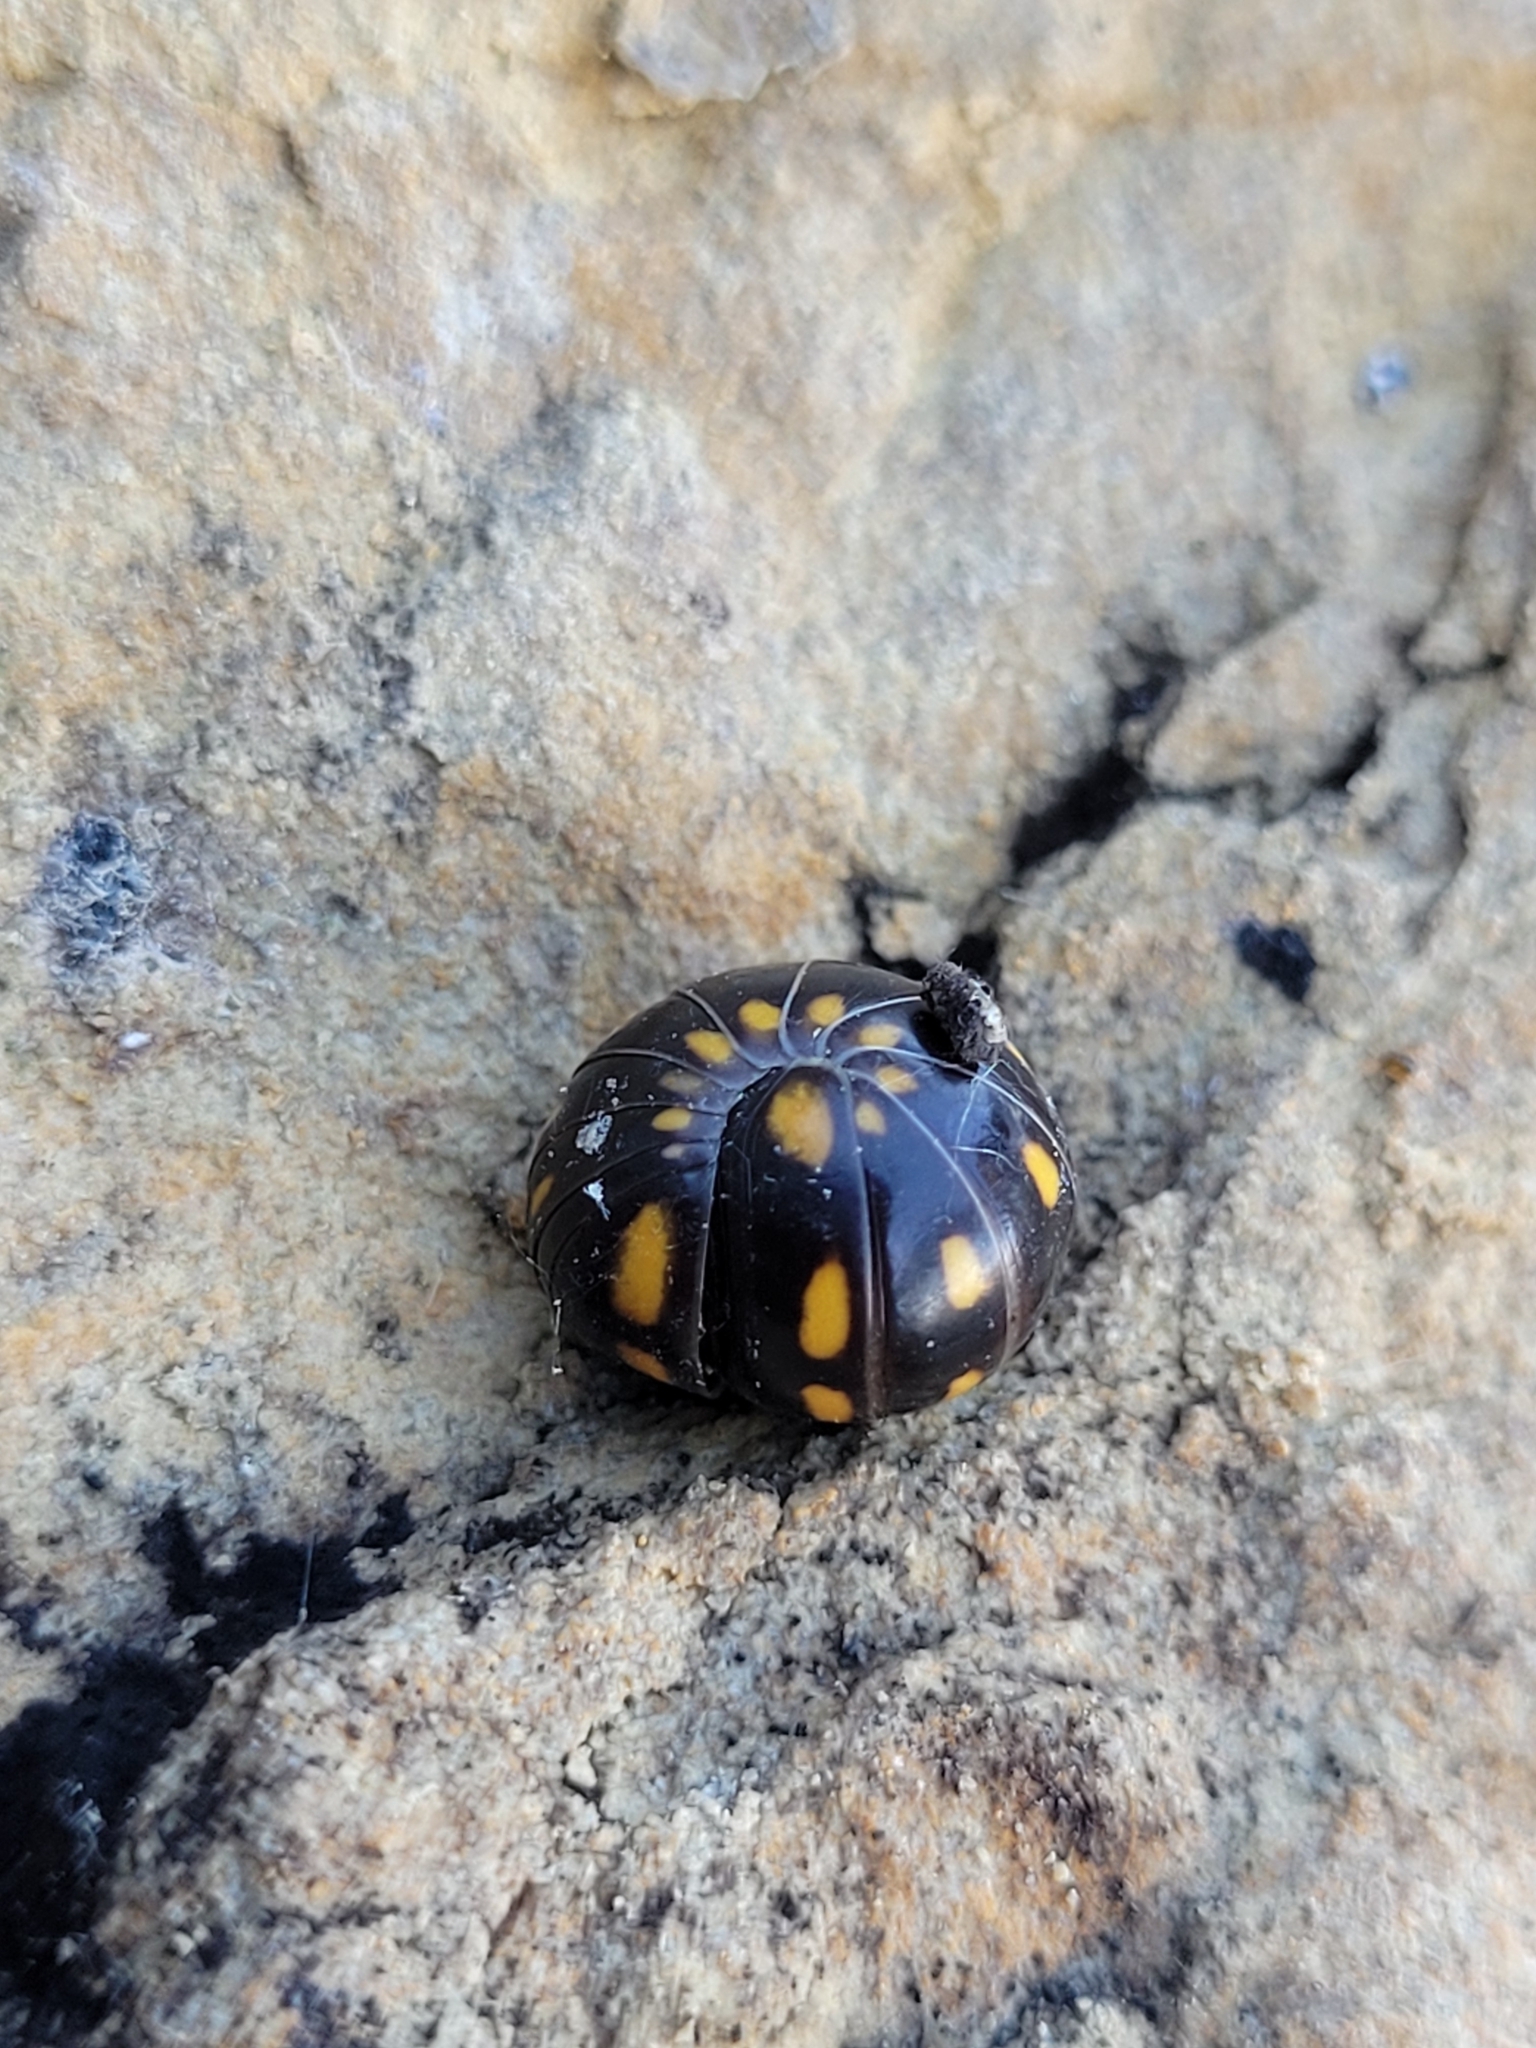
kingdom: Animalia
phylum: Arthropoda
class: Diplopoda
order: Glomerida
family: Glomeridae
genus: Glomeris
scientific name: Glomeris guttata
